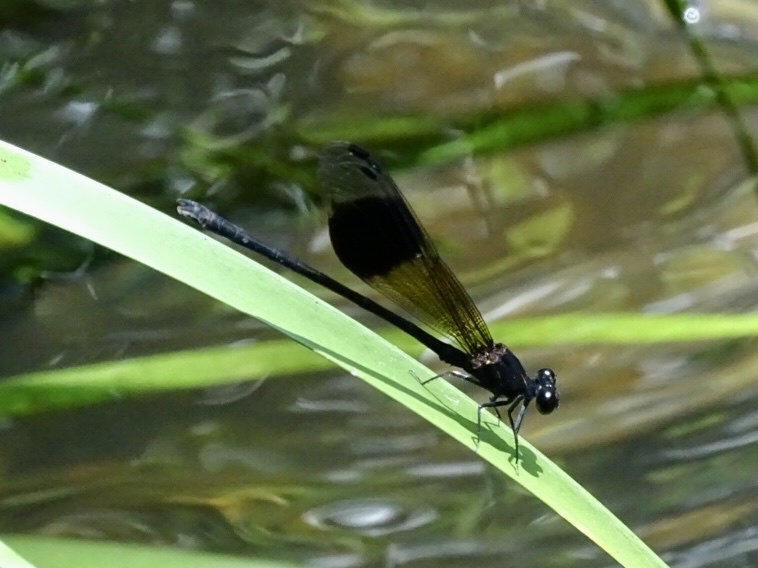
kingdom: Animalia
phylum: Arthropoda
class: Insecta
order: Odonata
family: Euphaeidae
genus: Euphaea
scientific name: Euphaea decorata
